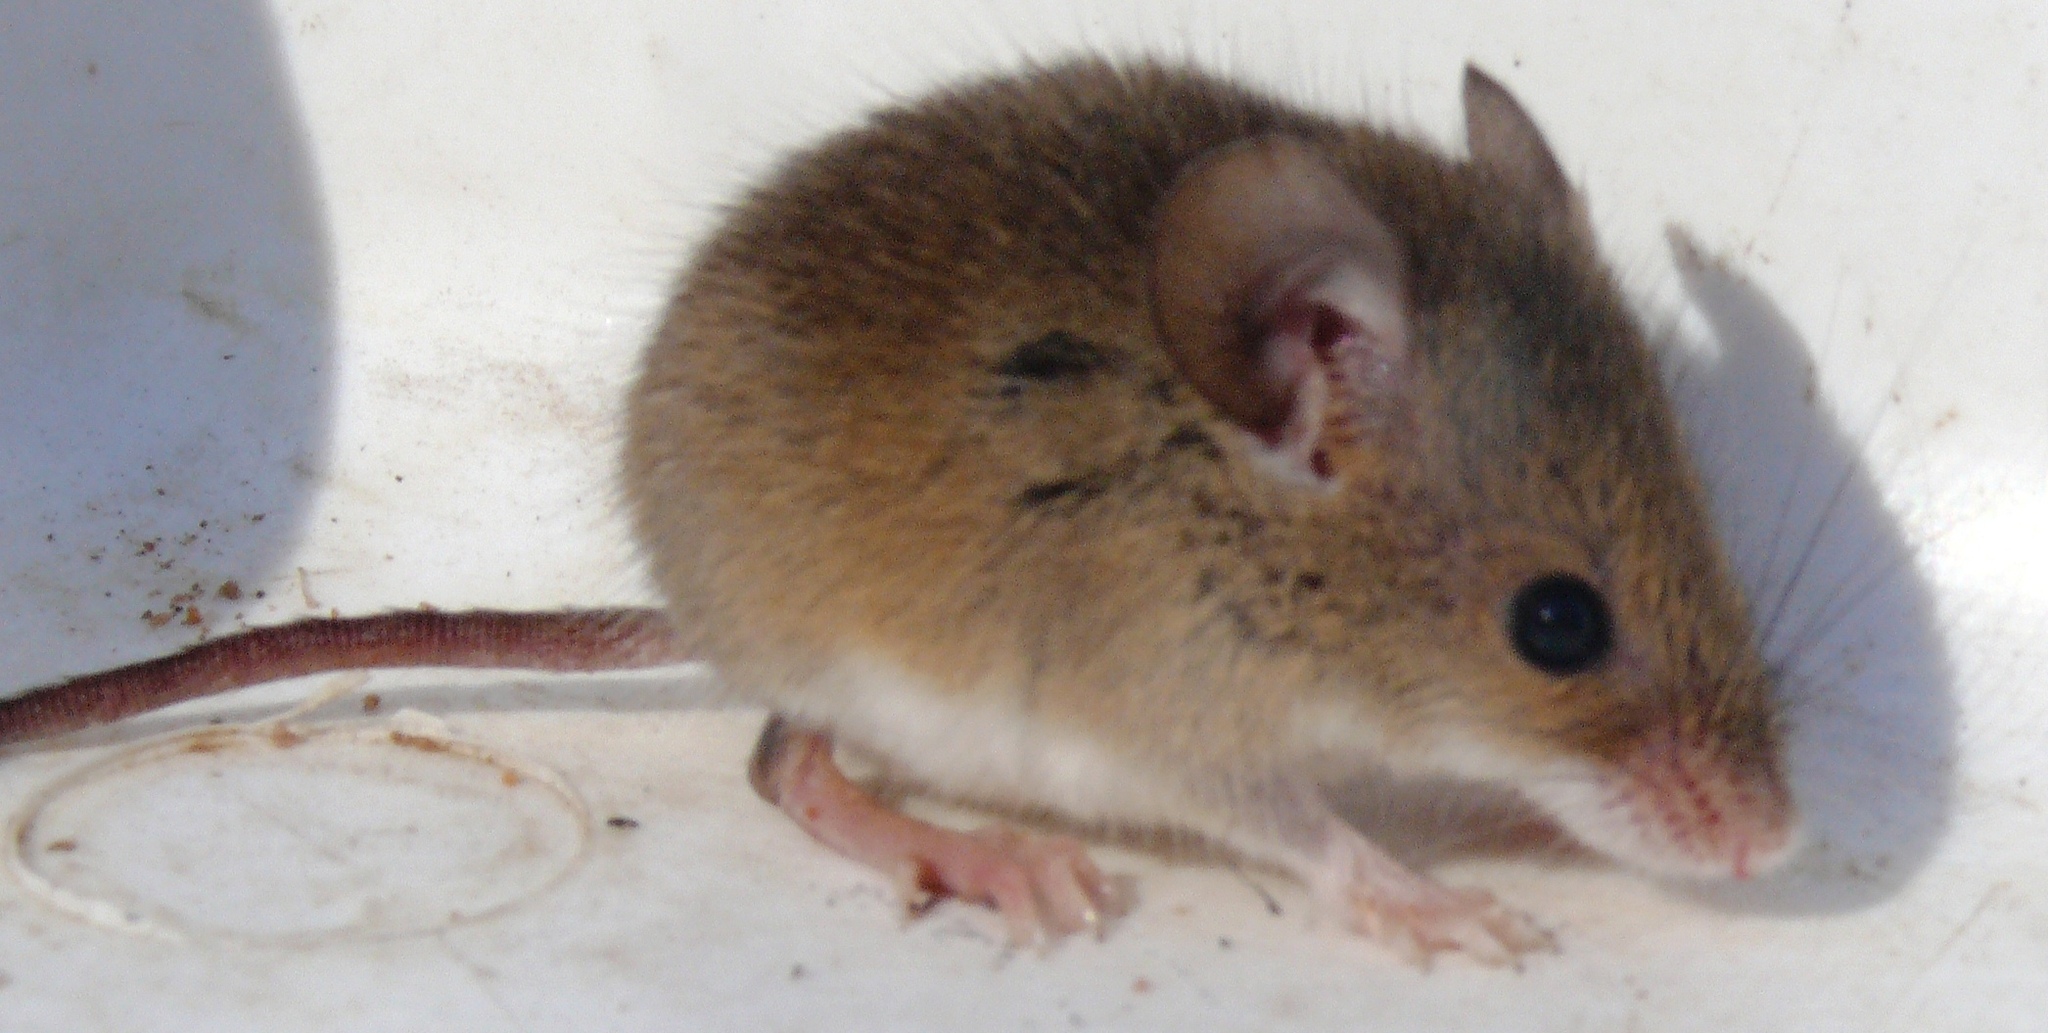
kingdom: Animalia
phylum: Chordata
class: Mammalia
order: Rodentia
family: Muridae
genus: Mus
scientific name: Mus minutoides
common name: Southern african pygmy mouse
